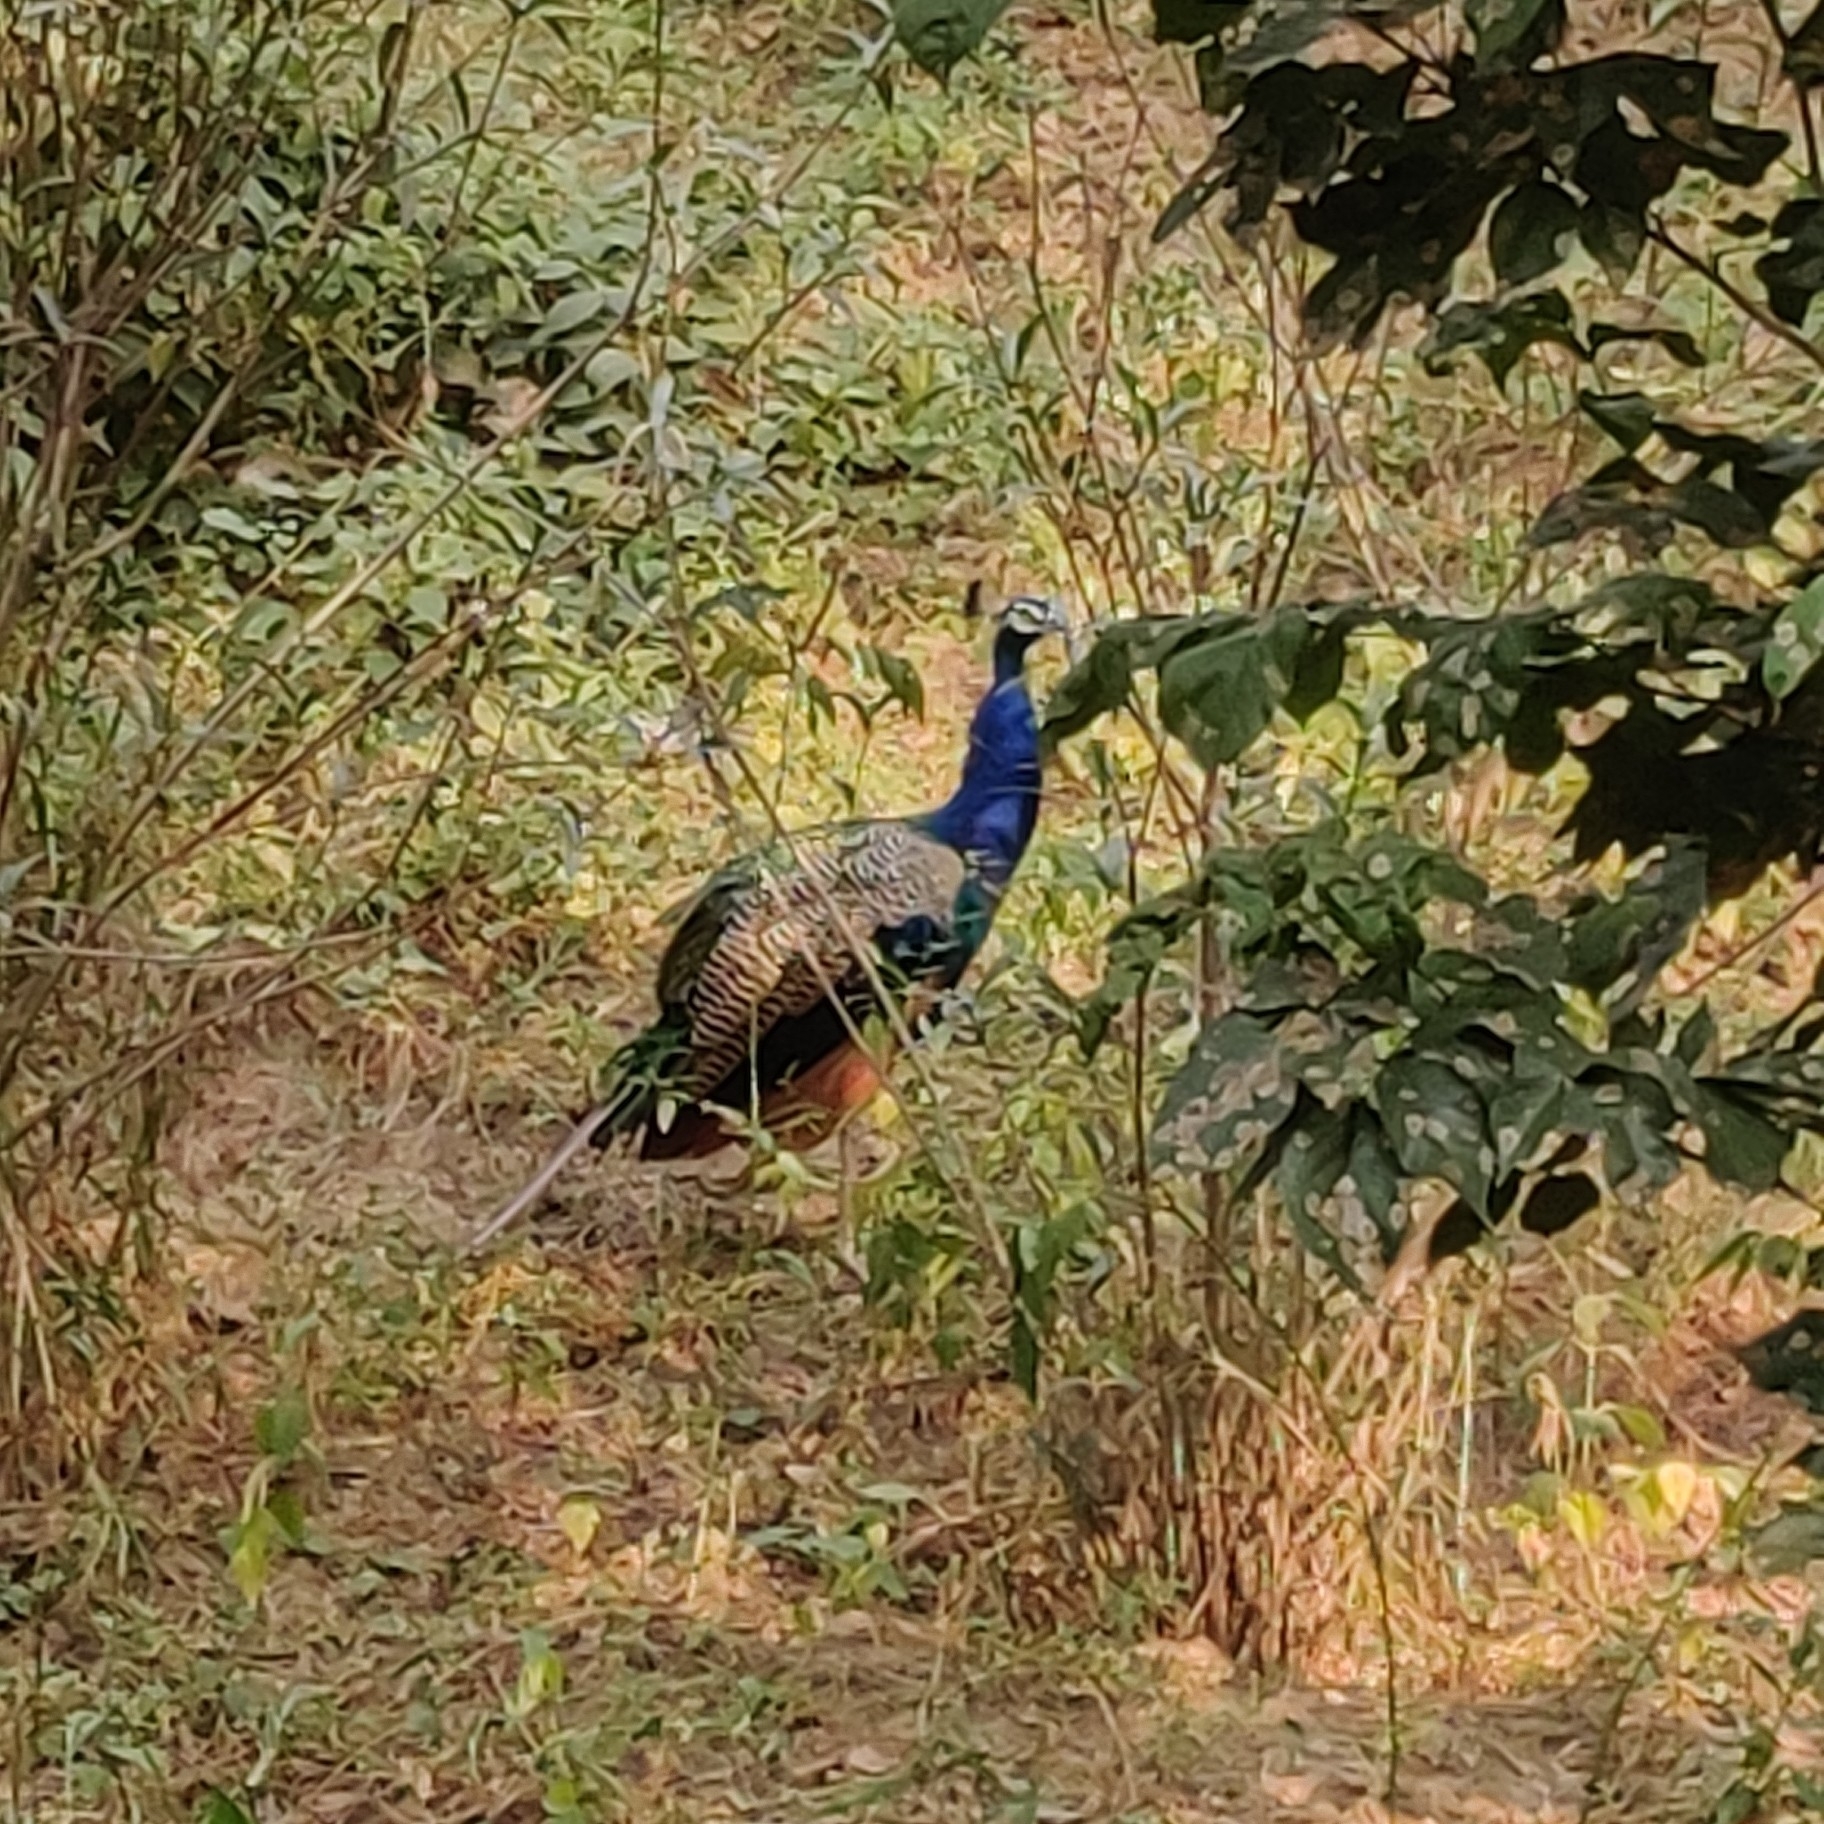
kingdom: Animalia
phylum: Chordata
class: Aves
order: Galliformes
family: Phasianidae
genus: Pavo
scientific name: Pavo cristatus
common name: Indian peafowl
